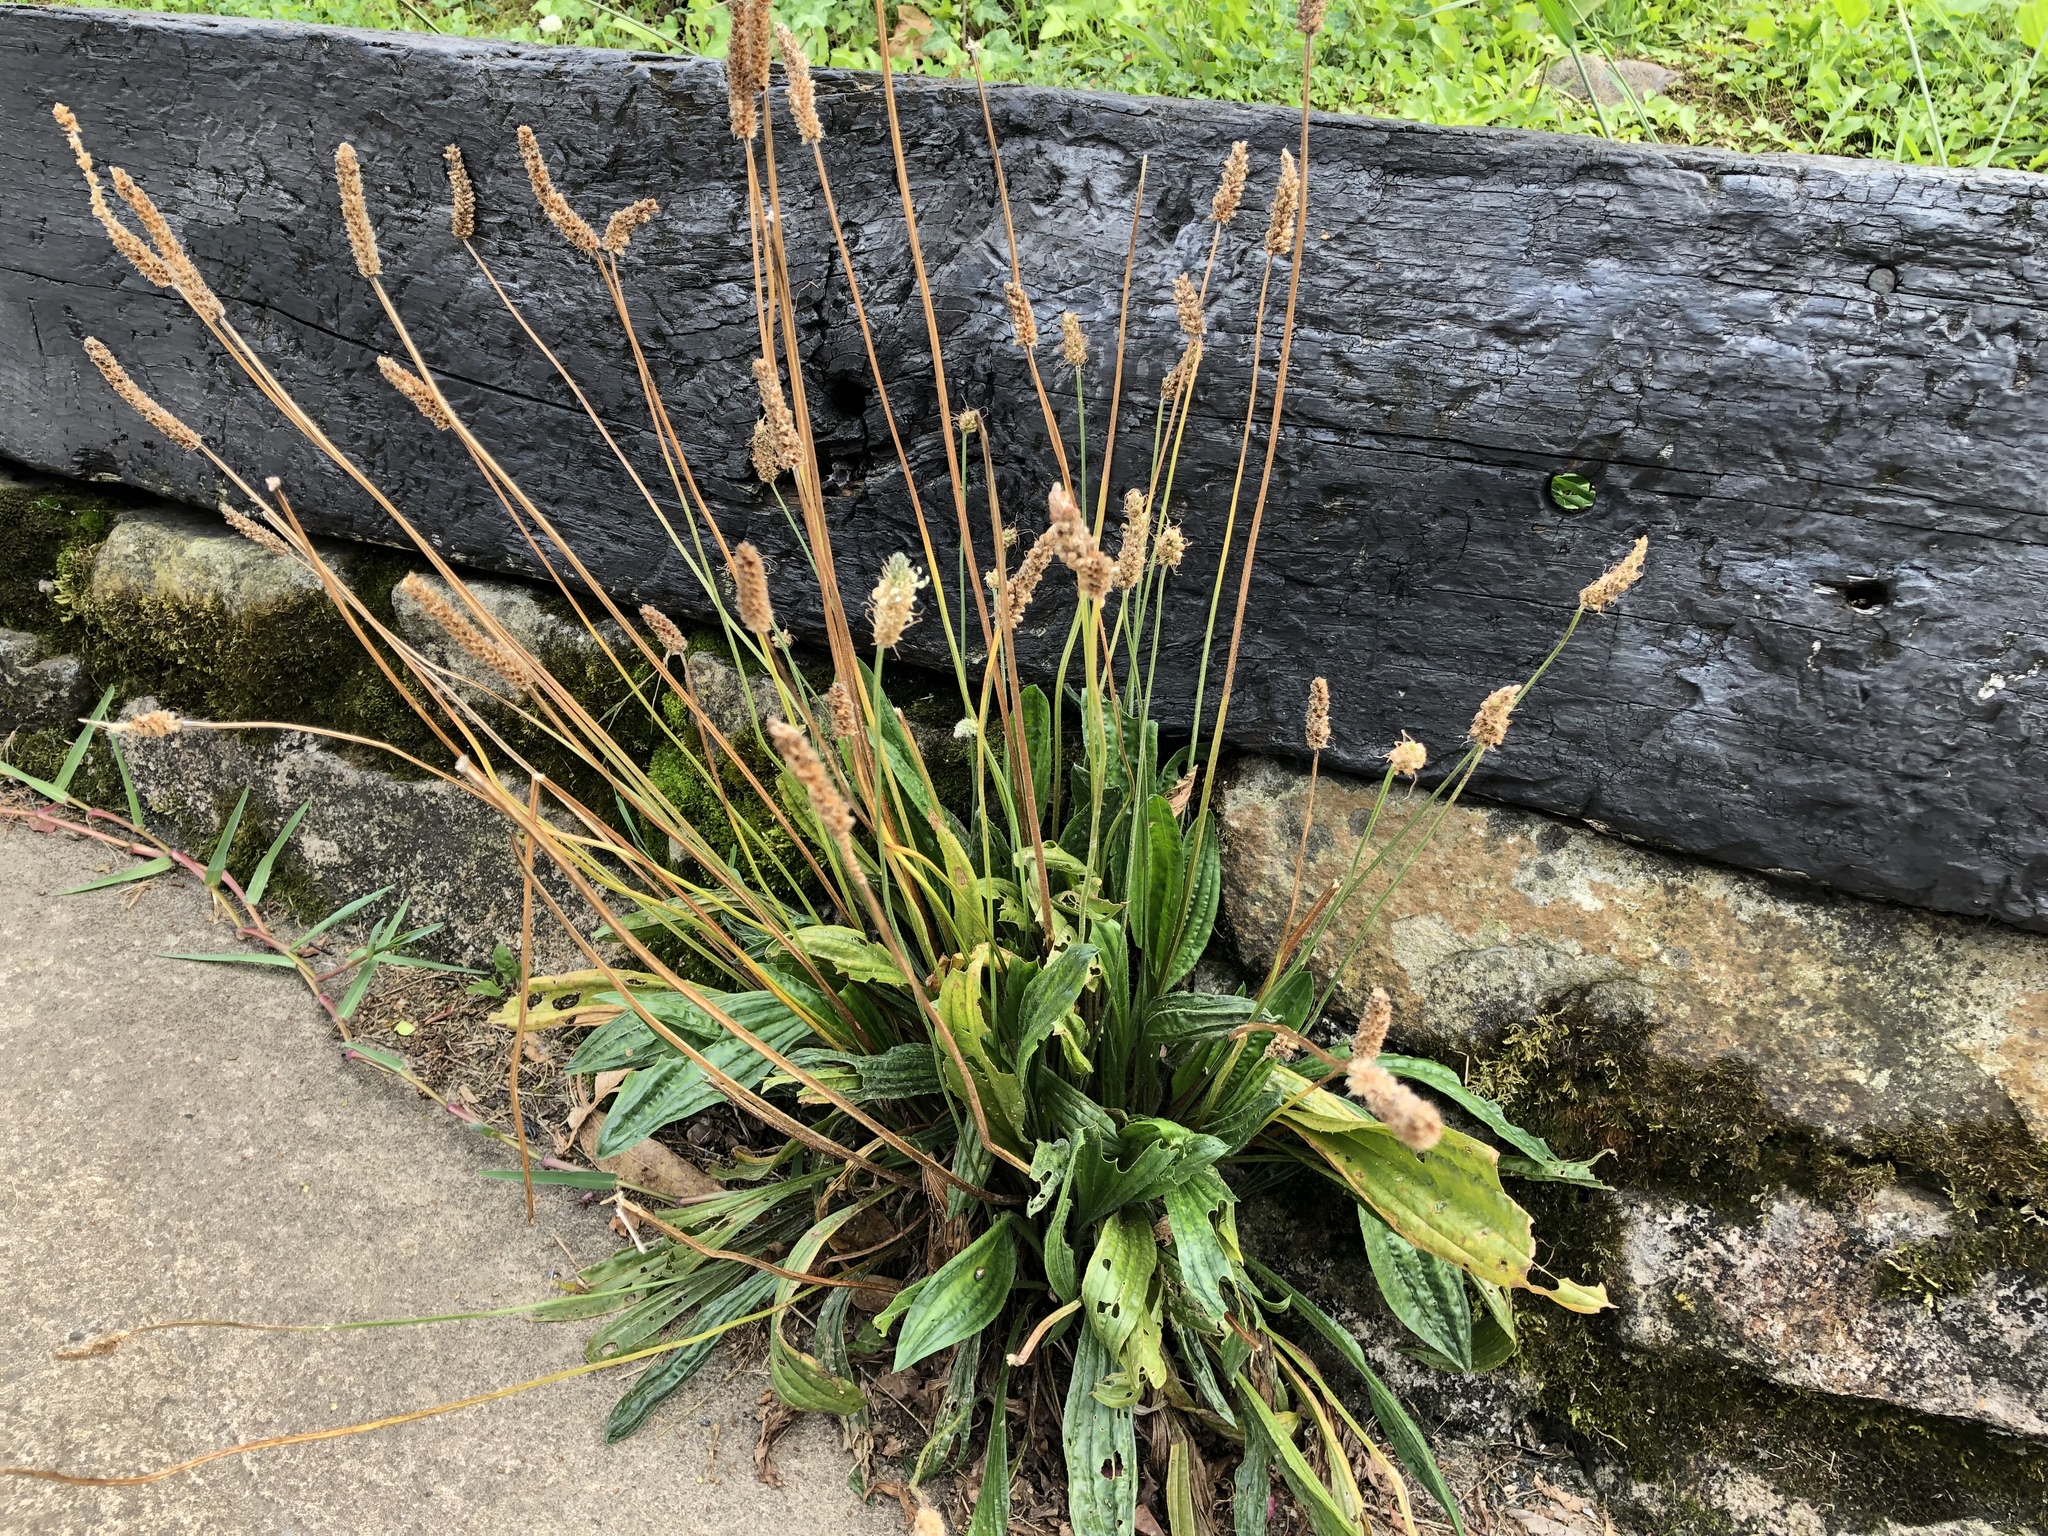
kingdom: Plantae
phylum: Tracheophyta
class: Magnoliopsida
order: Lamiales
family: Plantaginaceae
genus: Plantago
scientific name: Plantago lanceolata
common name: Ribwort plantain
